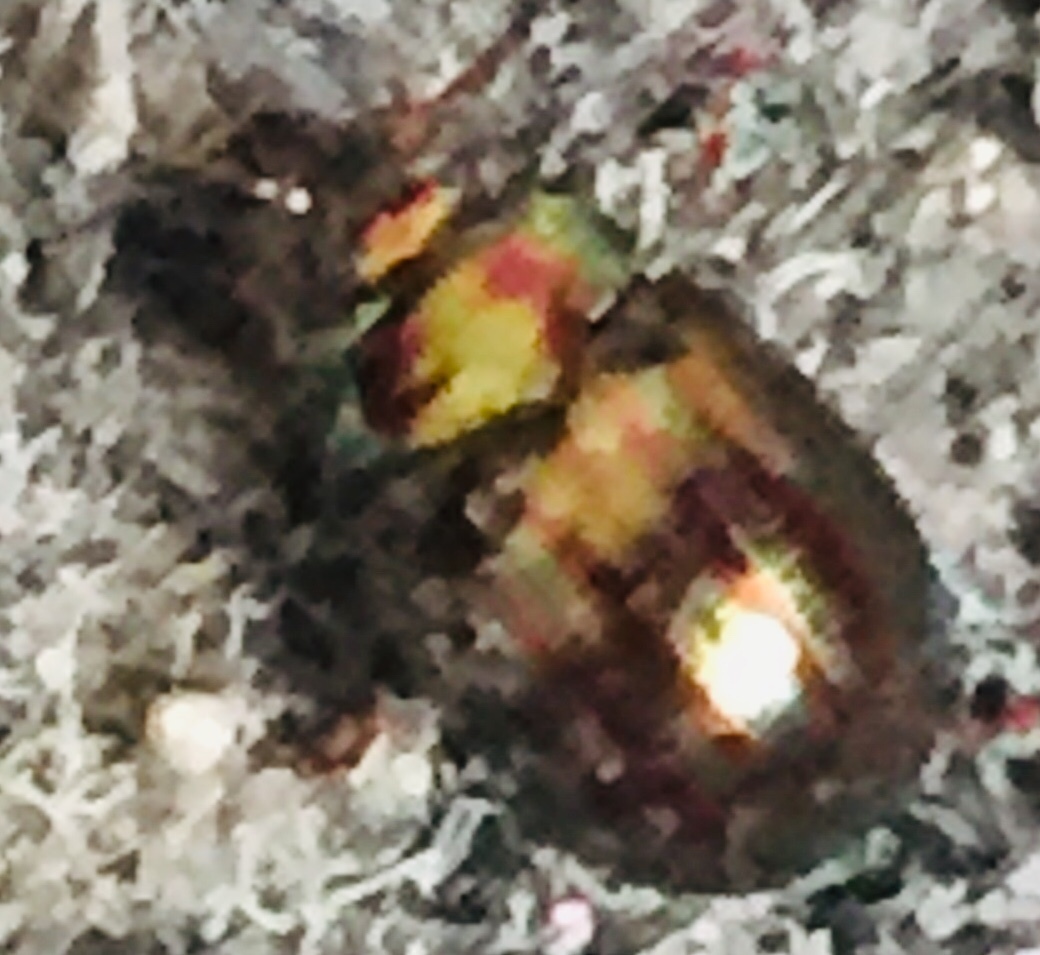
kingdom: Animalia
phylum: Arthropoda
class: Insecta
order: Coleoptera
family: Chrysomelidae
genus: Chrysolina
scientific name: Chrysolina americana
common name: Rosemary beetle
